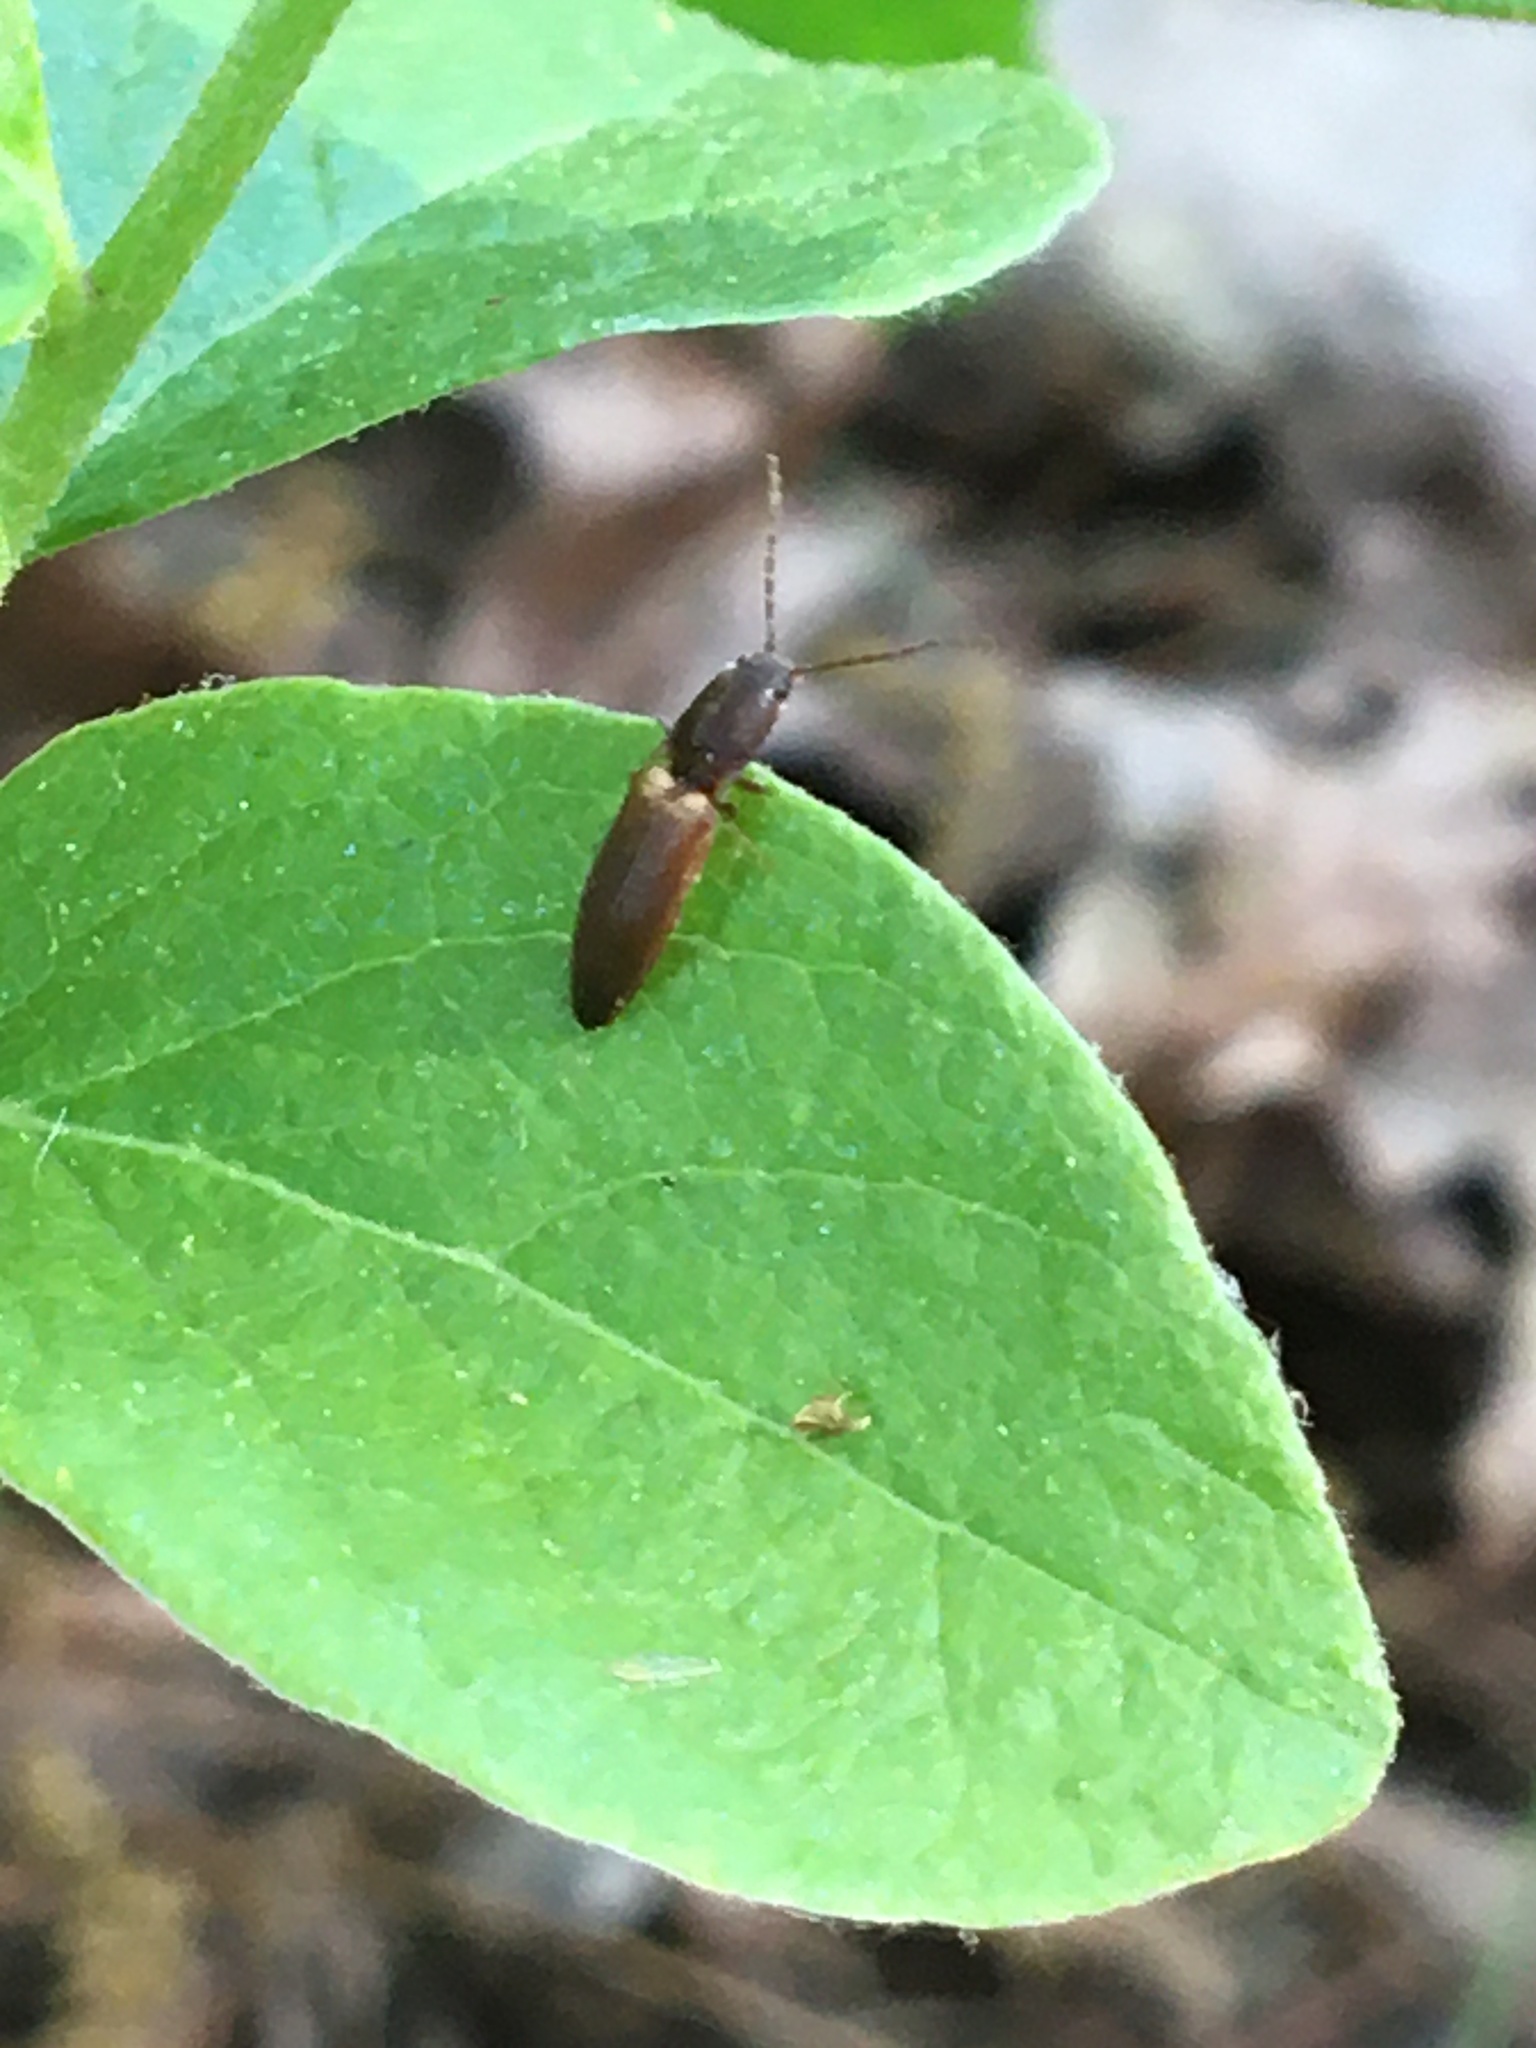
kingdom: Animalia
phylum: Arthropoda
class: Insecta
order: Coleoptera
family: Elateridae
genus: Dolerosomus
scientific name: Dolerosomus silaceus
